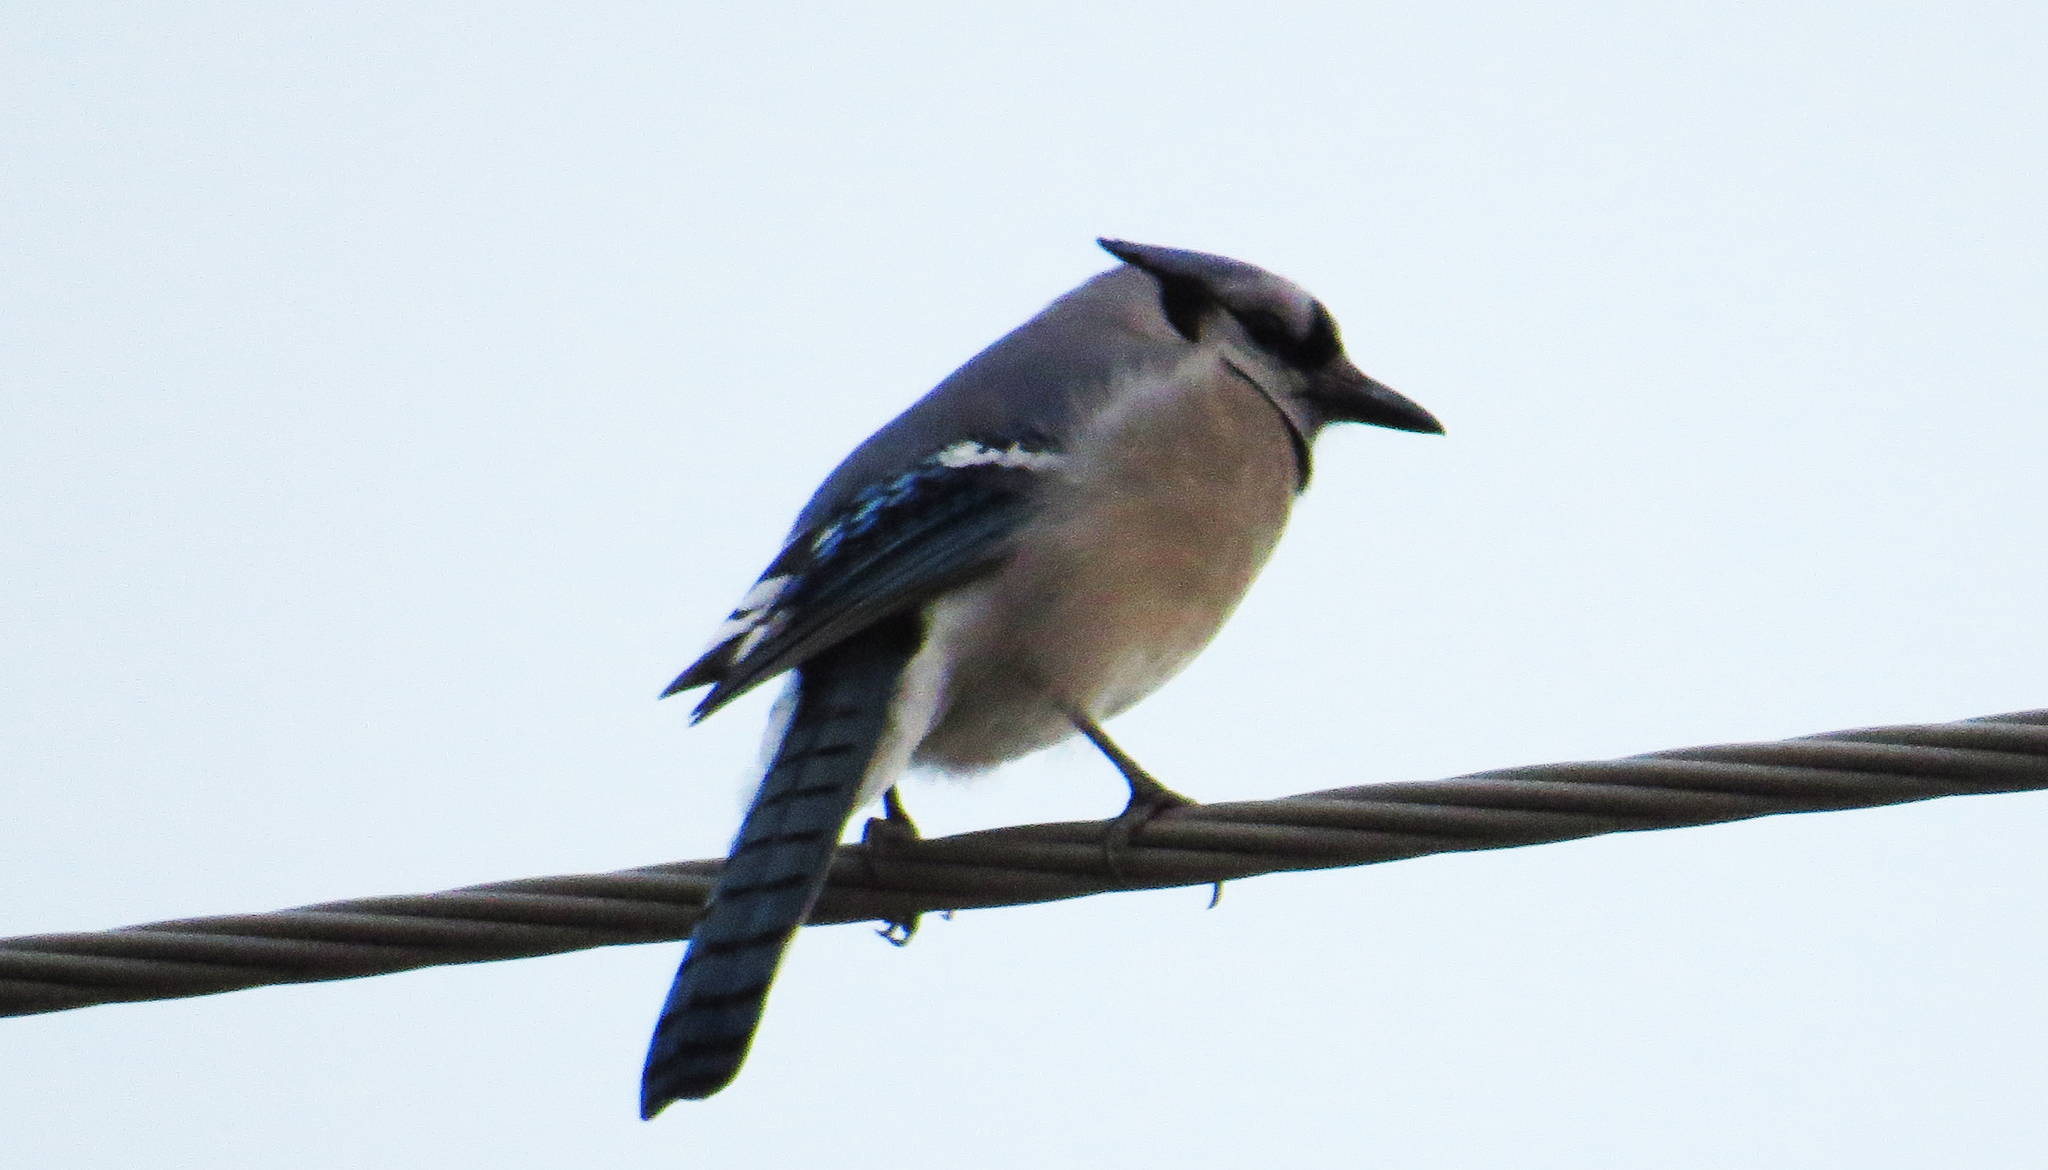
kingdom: Animalia
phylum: Chordata
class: Aves
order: Passeriformes
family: Corvidae
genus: Cyanocitta
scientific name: Cyanocitta cristata
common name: Blue jay
